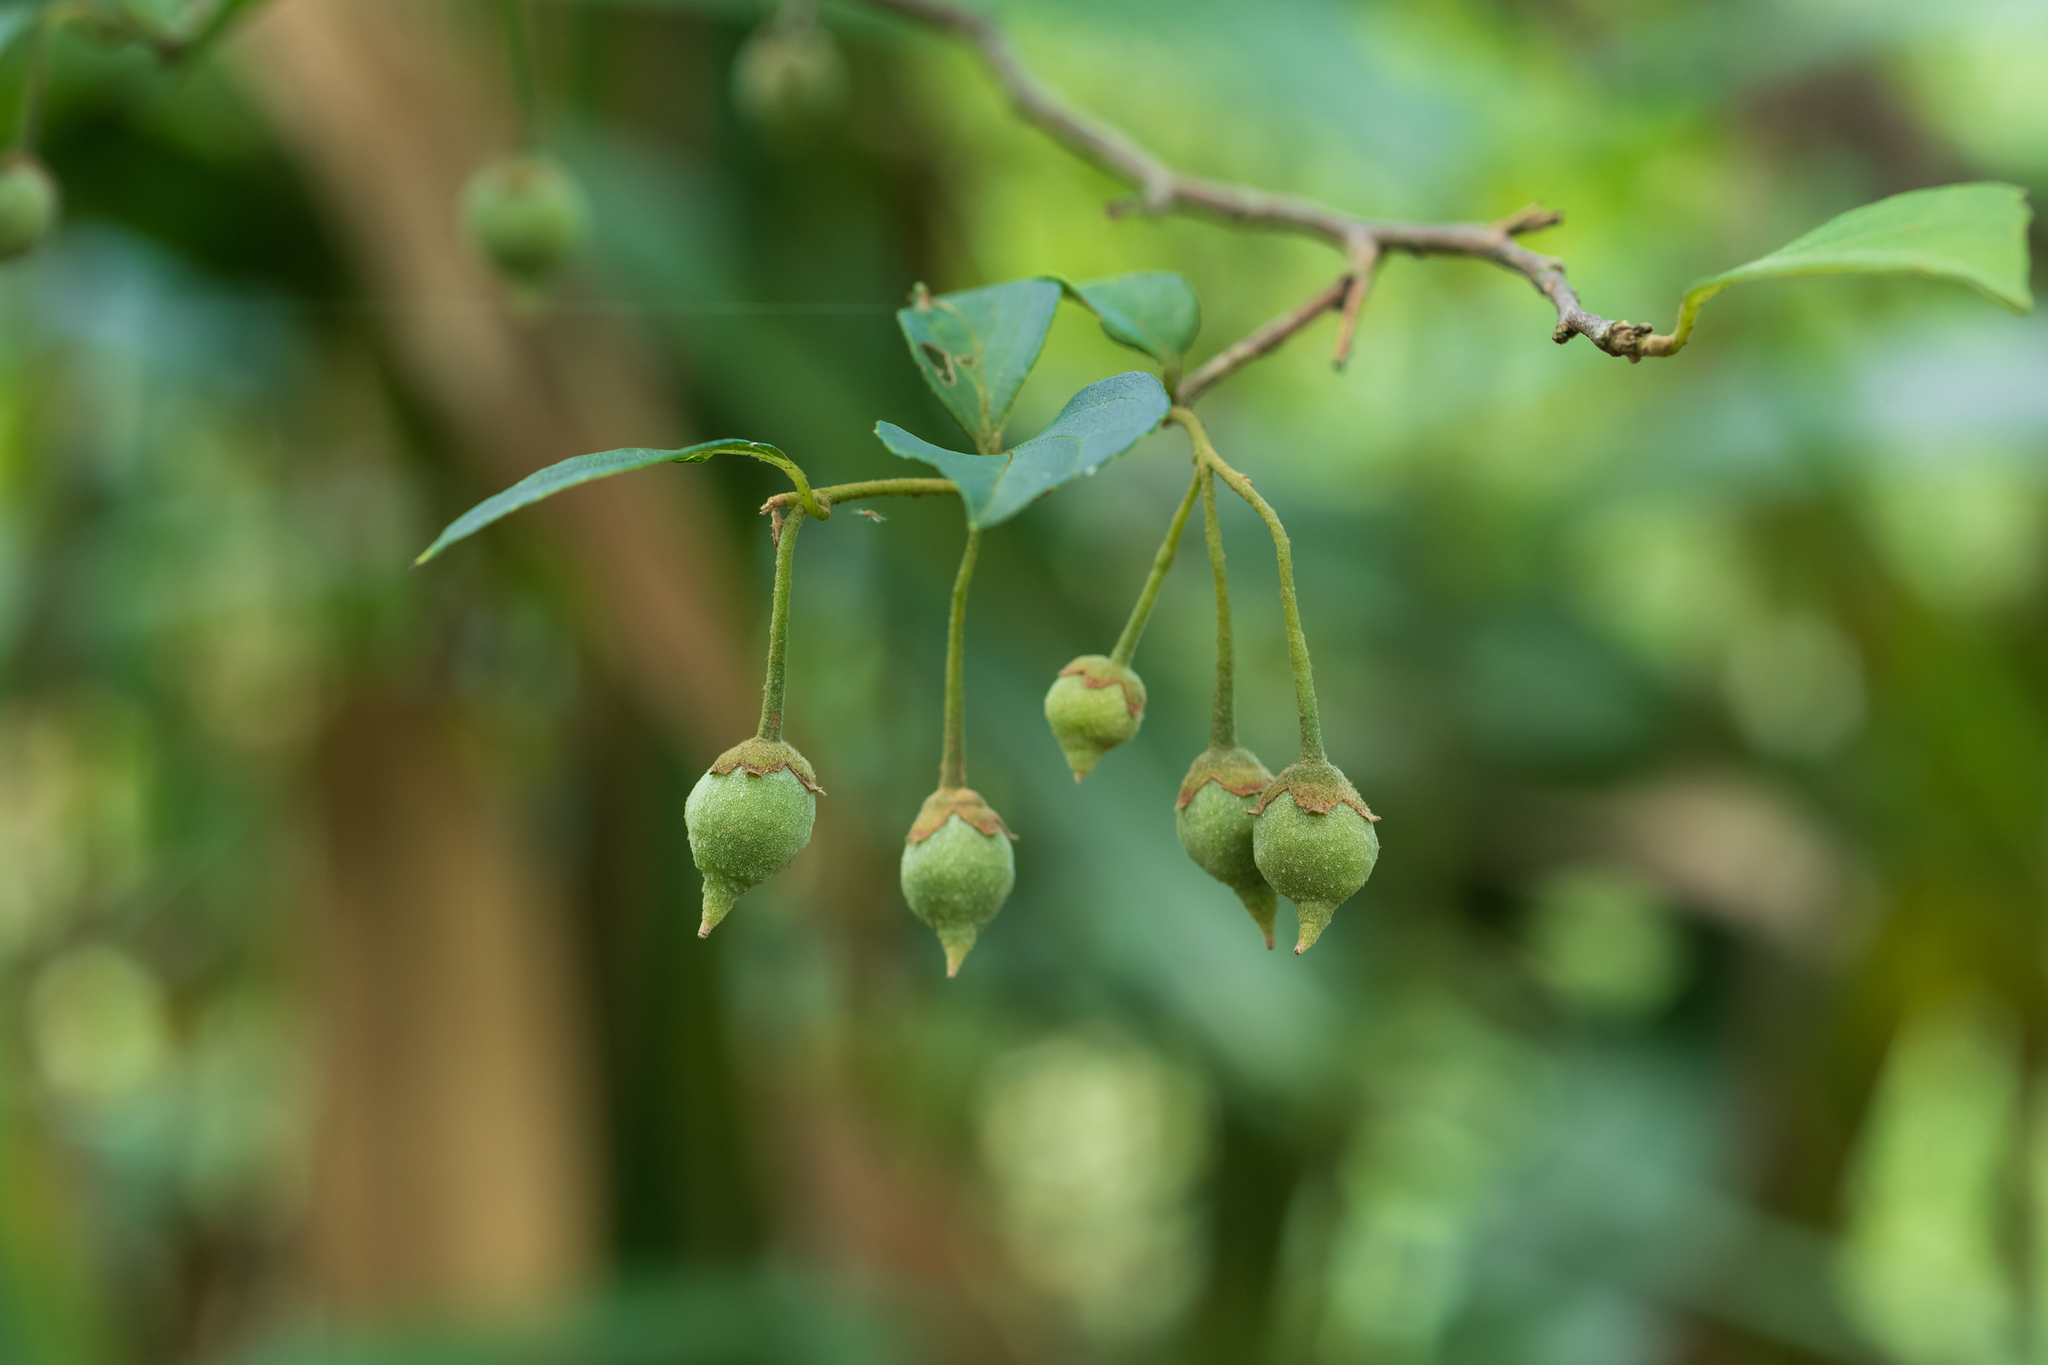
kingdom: Plantae
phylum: Tracheophyta
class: Magnoliopsida
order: Ericales
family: Styracaceae
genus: Styrax
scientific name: Styrax formosanus
